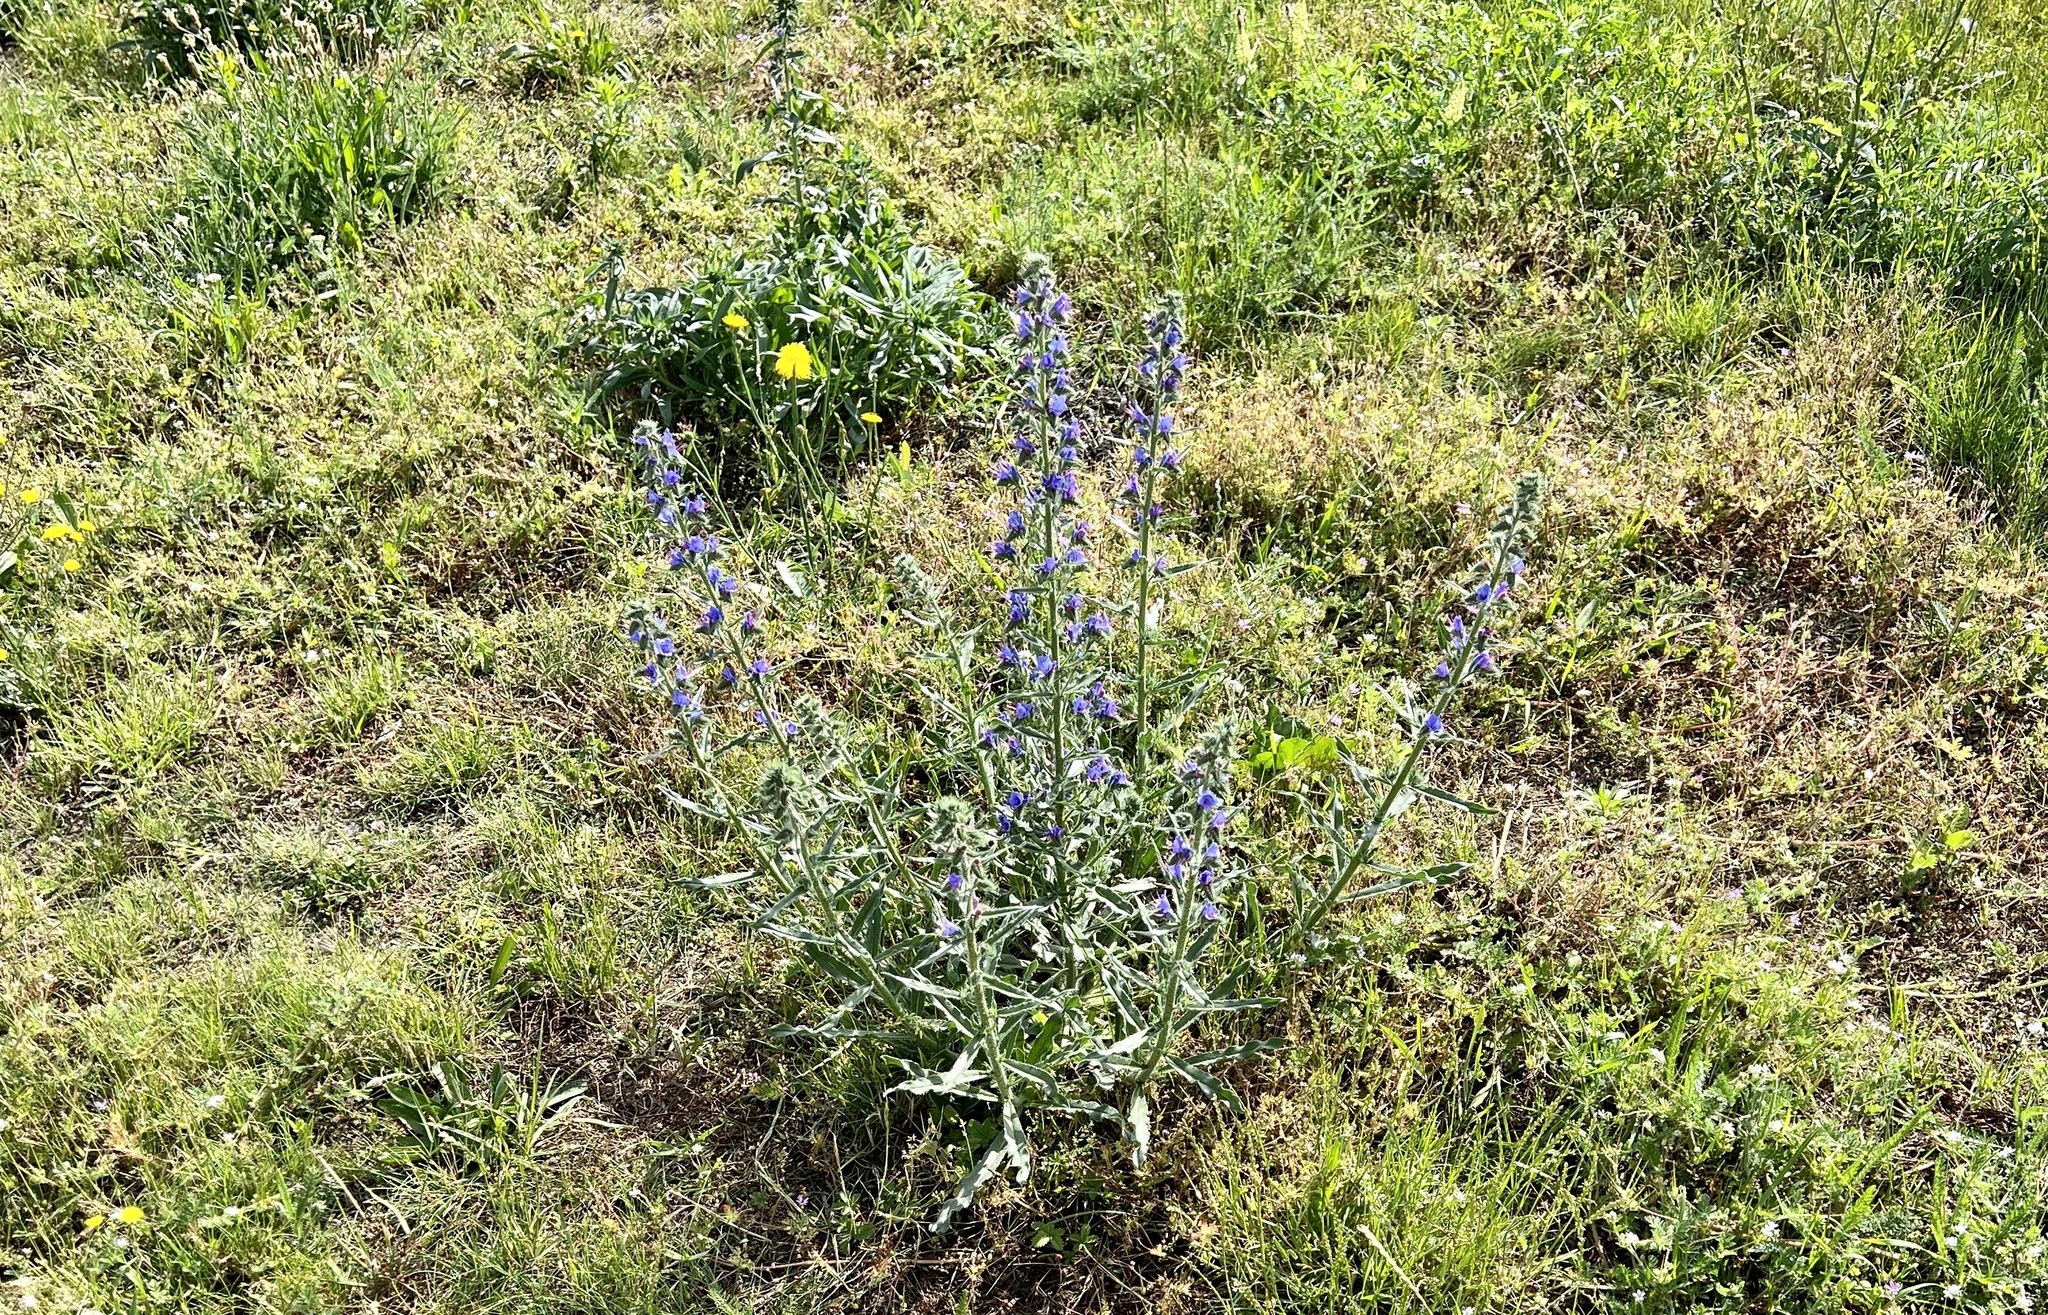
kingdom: Plantae
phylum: Tracheophyta
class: Magnoliopsida
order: Boraginales
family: Boraginaceae
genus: Echium
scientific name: Echium vulgare
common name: Common viper's bugloss
